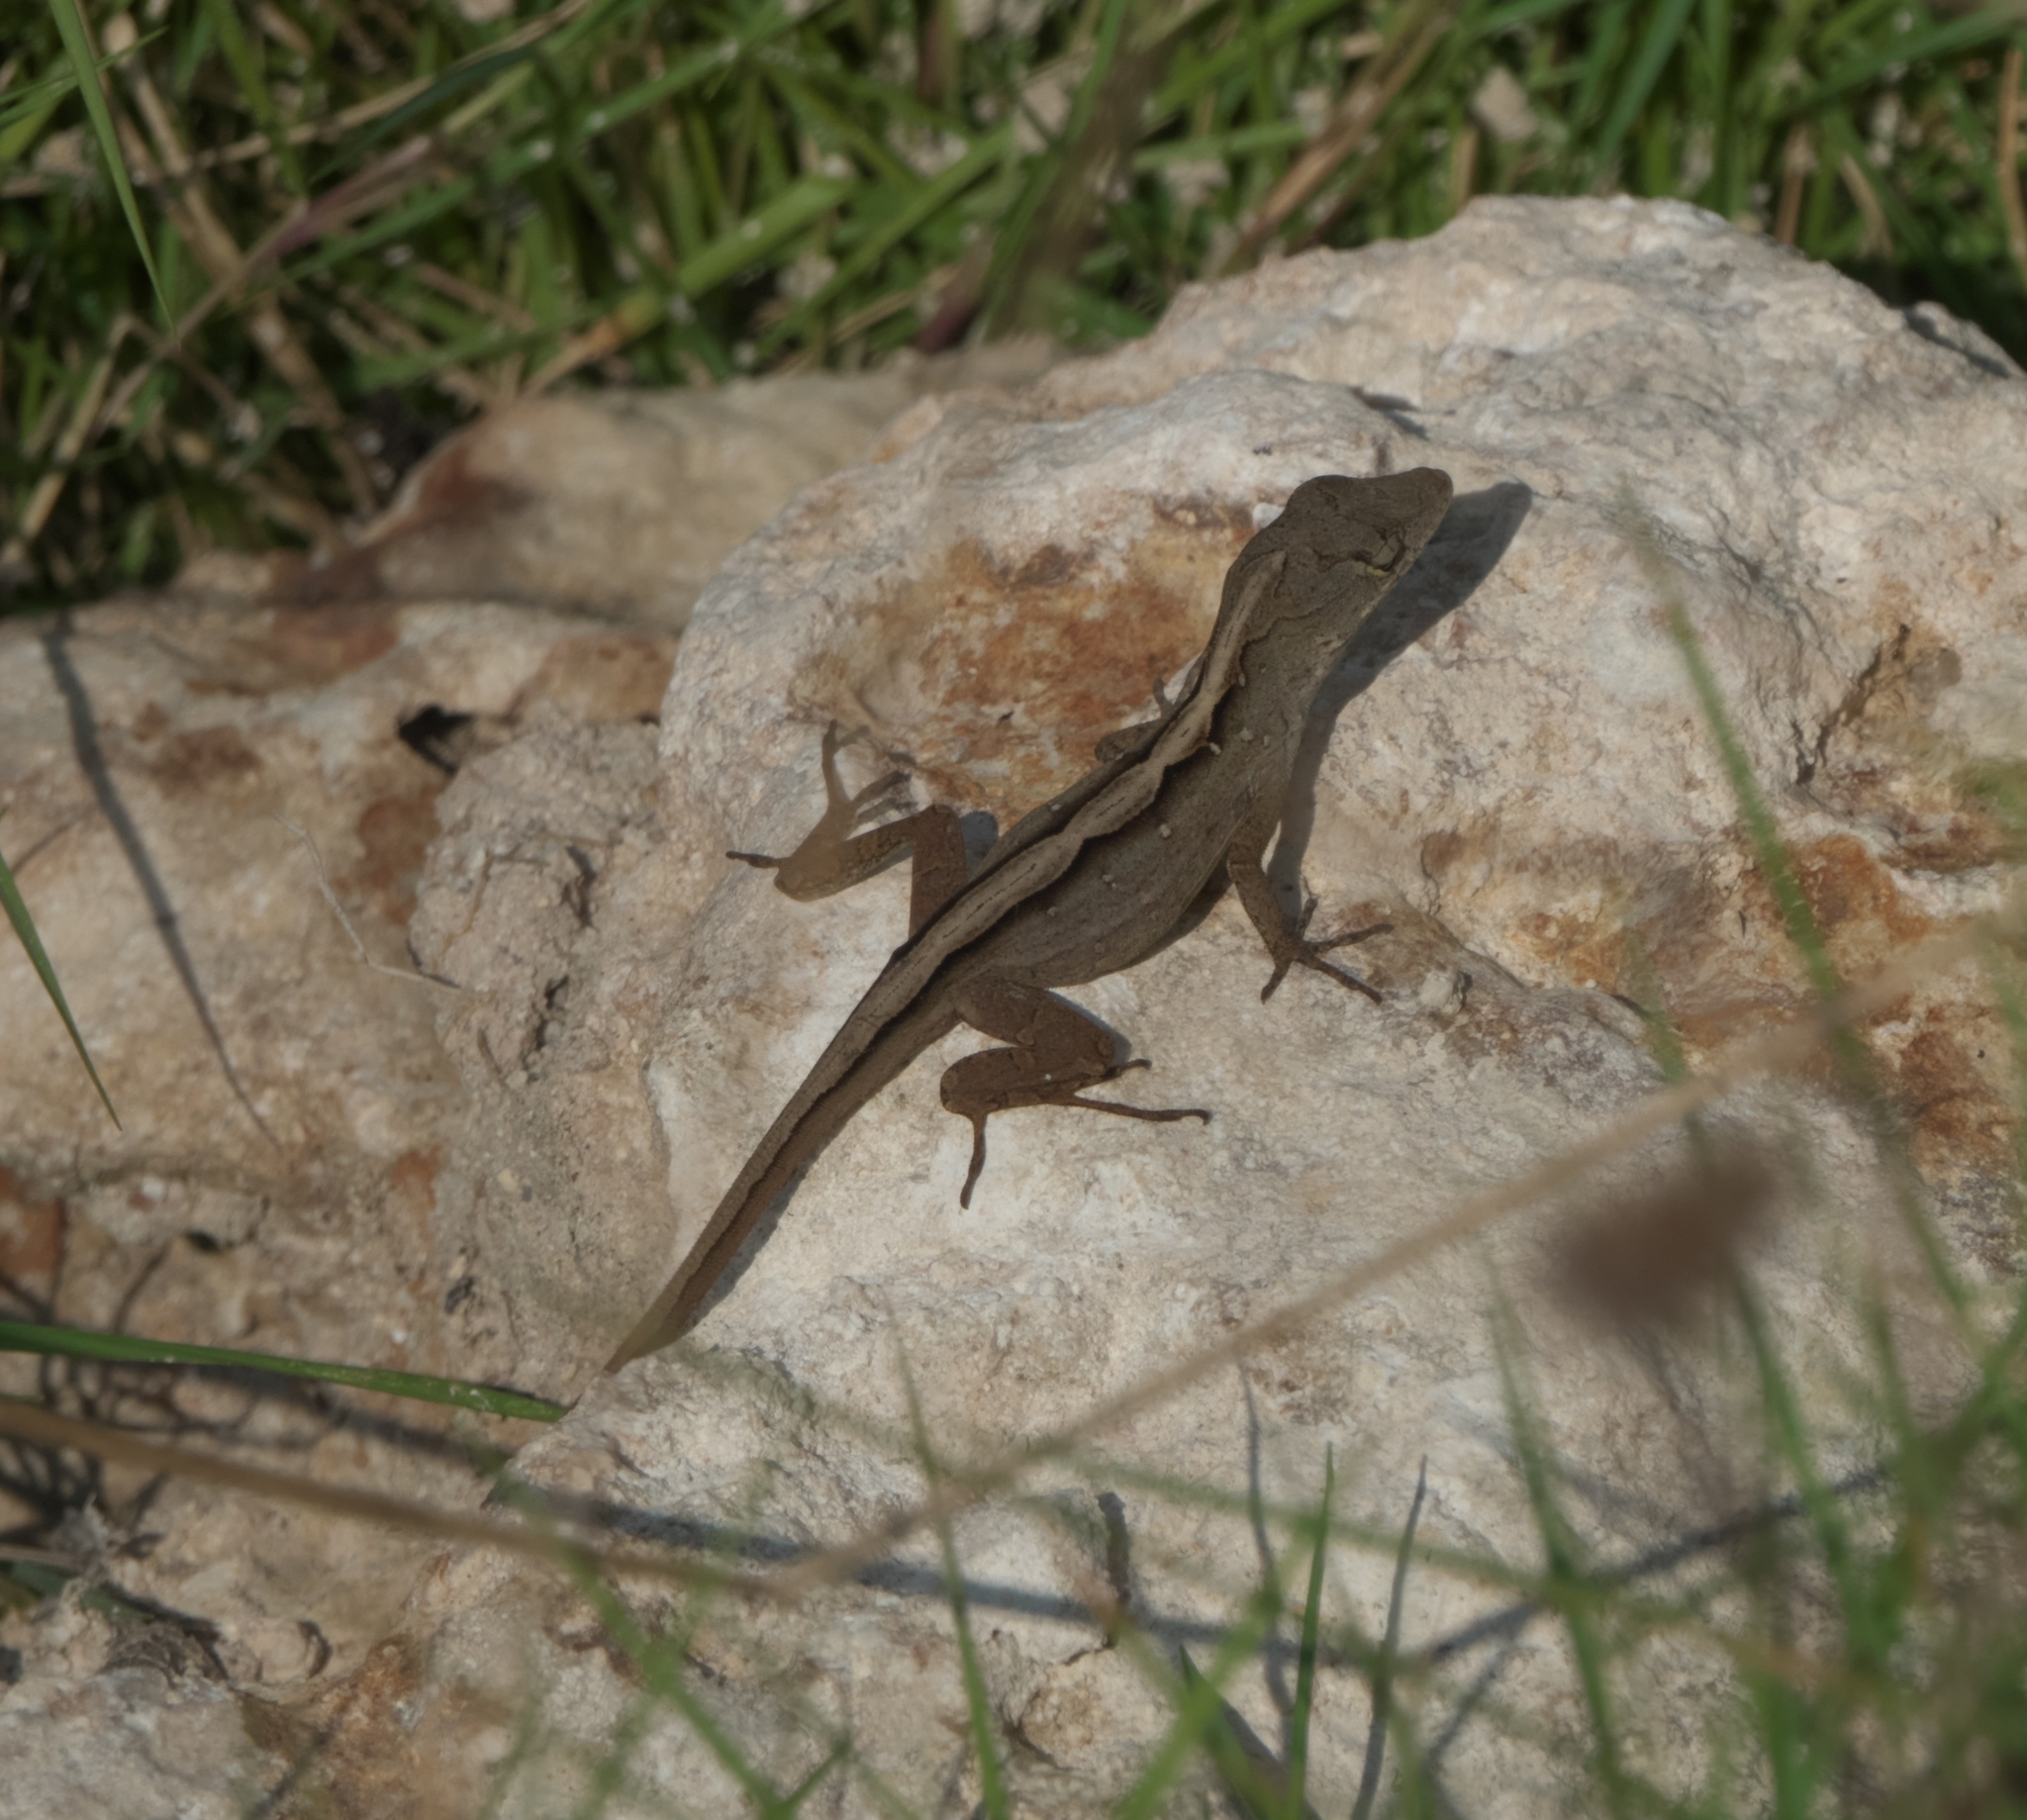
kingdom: Animalia
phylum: Chordata
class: Squamata
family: Dactyloidae
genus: Anolis
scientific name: Anolis sagrei
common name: Brown anole
